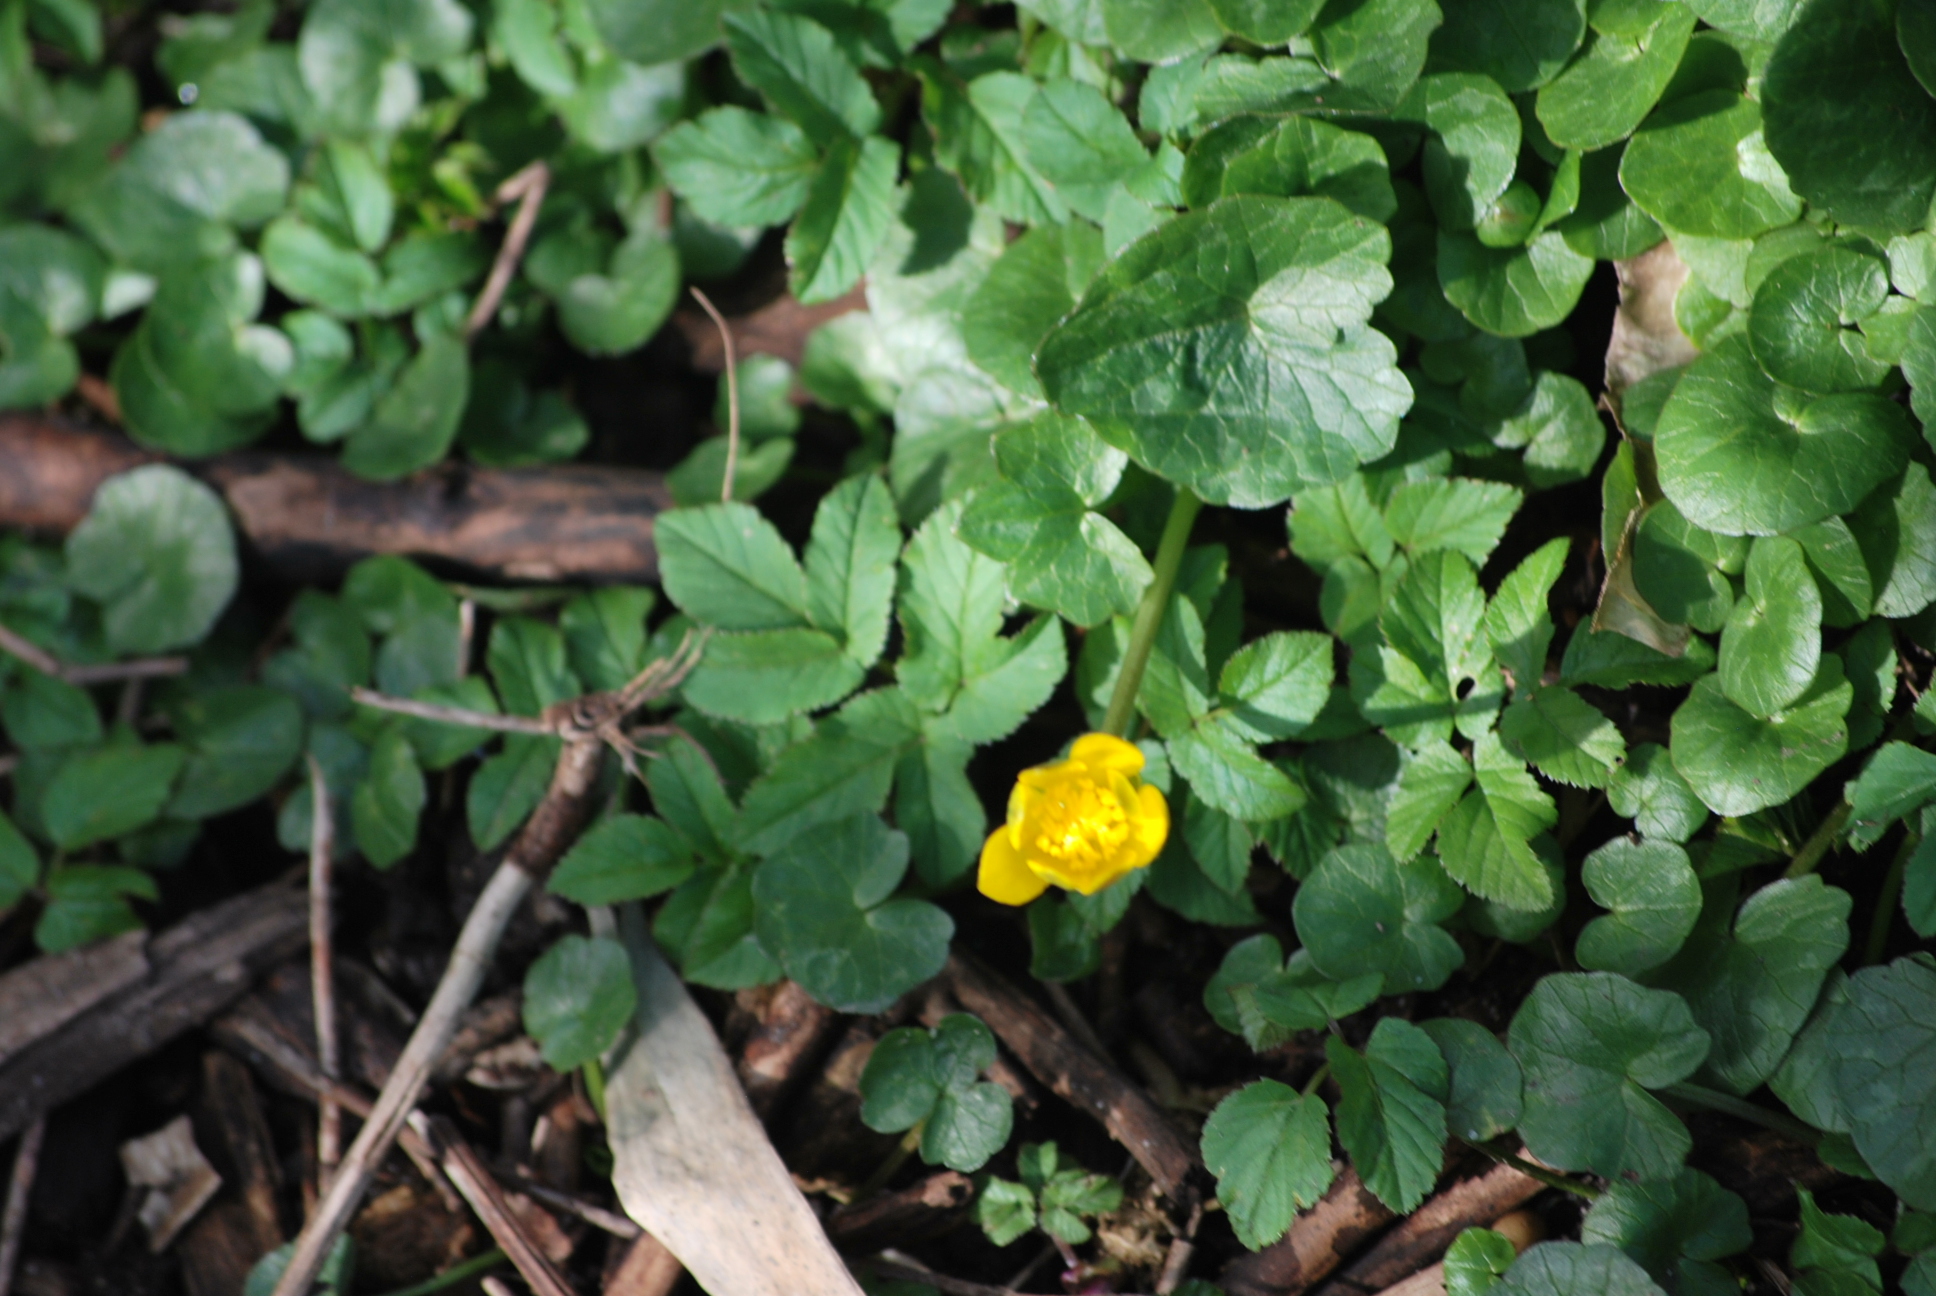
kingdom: Plantae
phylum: Tracheophyta
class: Magnoliopsida
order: Ranunculales
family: Ranunculaceae
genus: Ficaria
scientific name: Ficaria verna
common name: Lesser celandine
